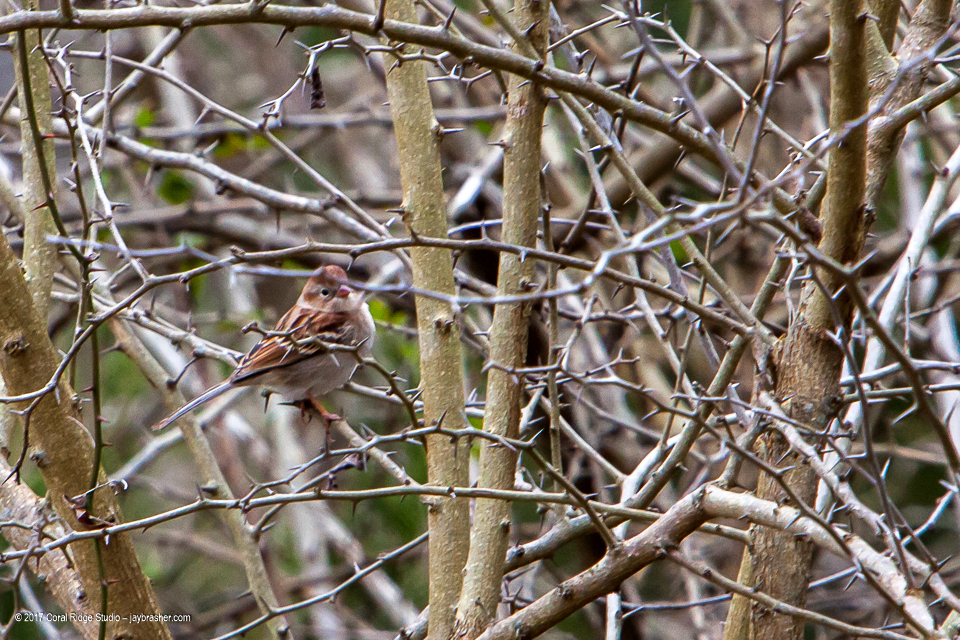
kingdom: Animalia
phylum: Chordata
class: Aves
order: Passeriformes
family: Passerellidae
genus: Spizella
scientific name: Spizella pusilla
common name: Field sparrow
